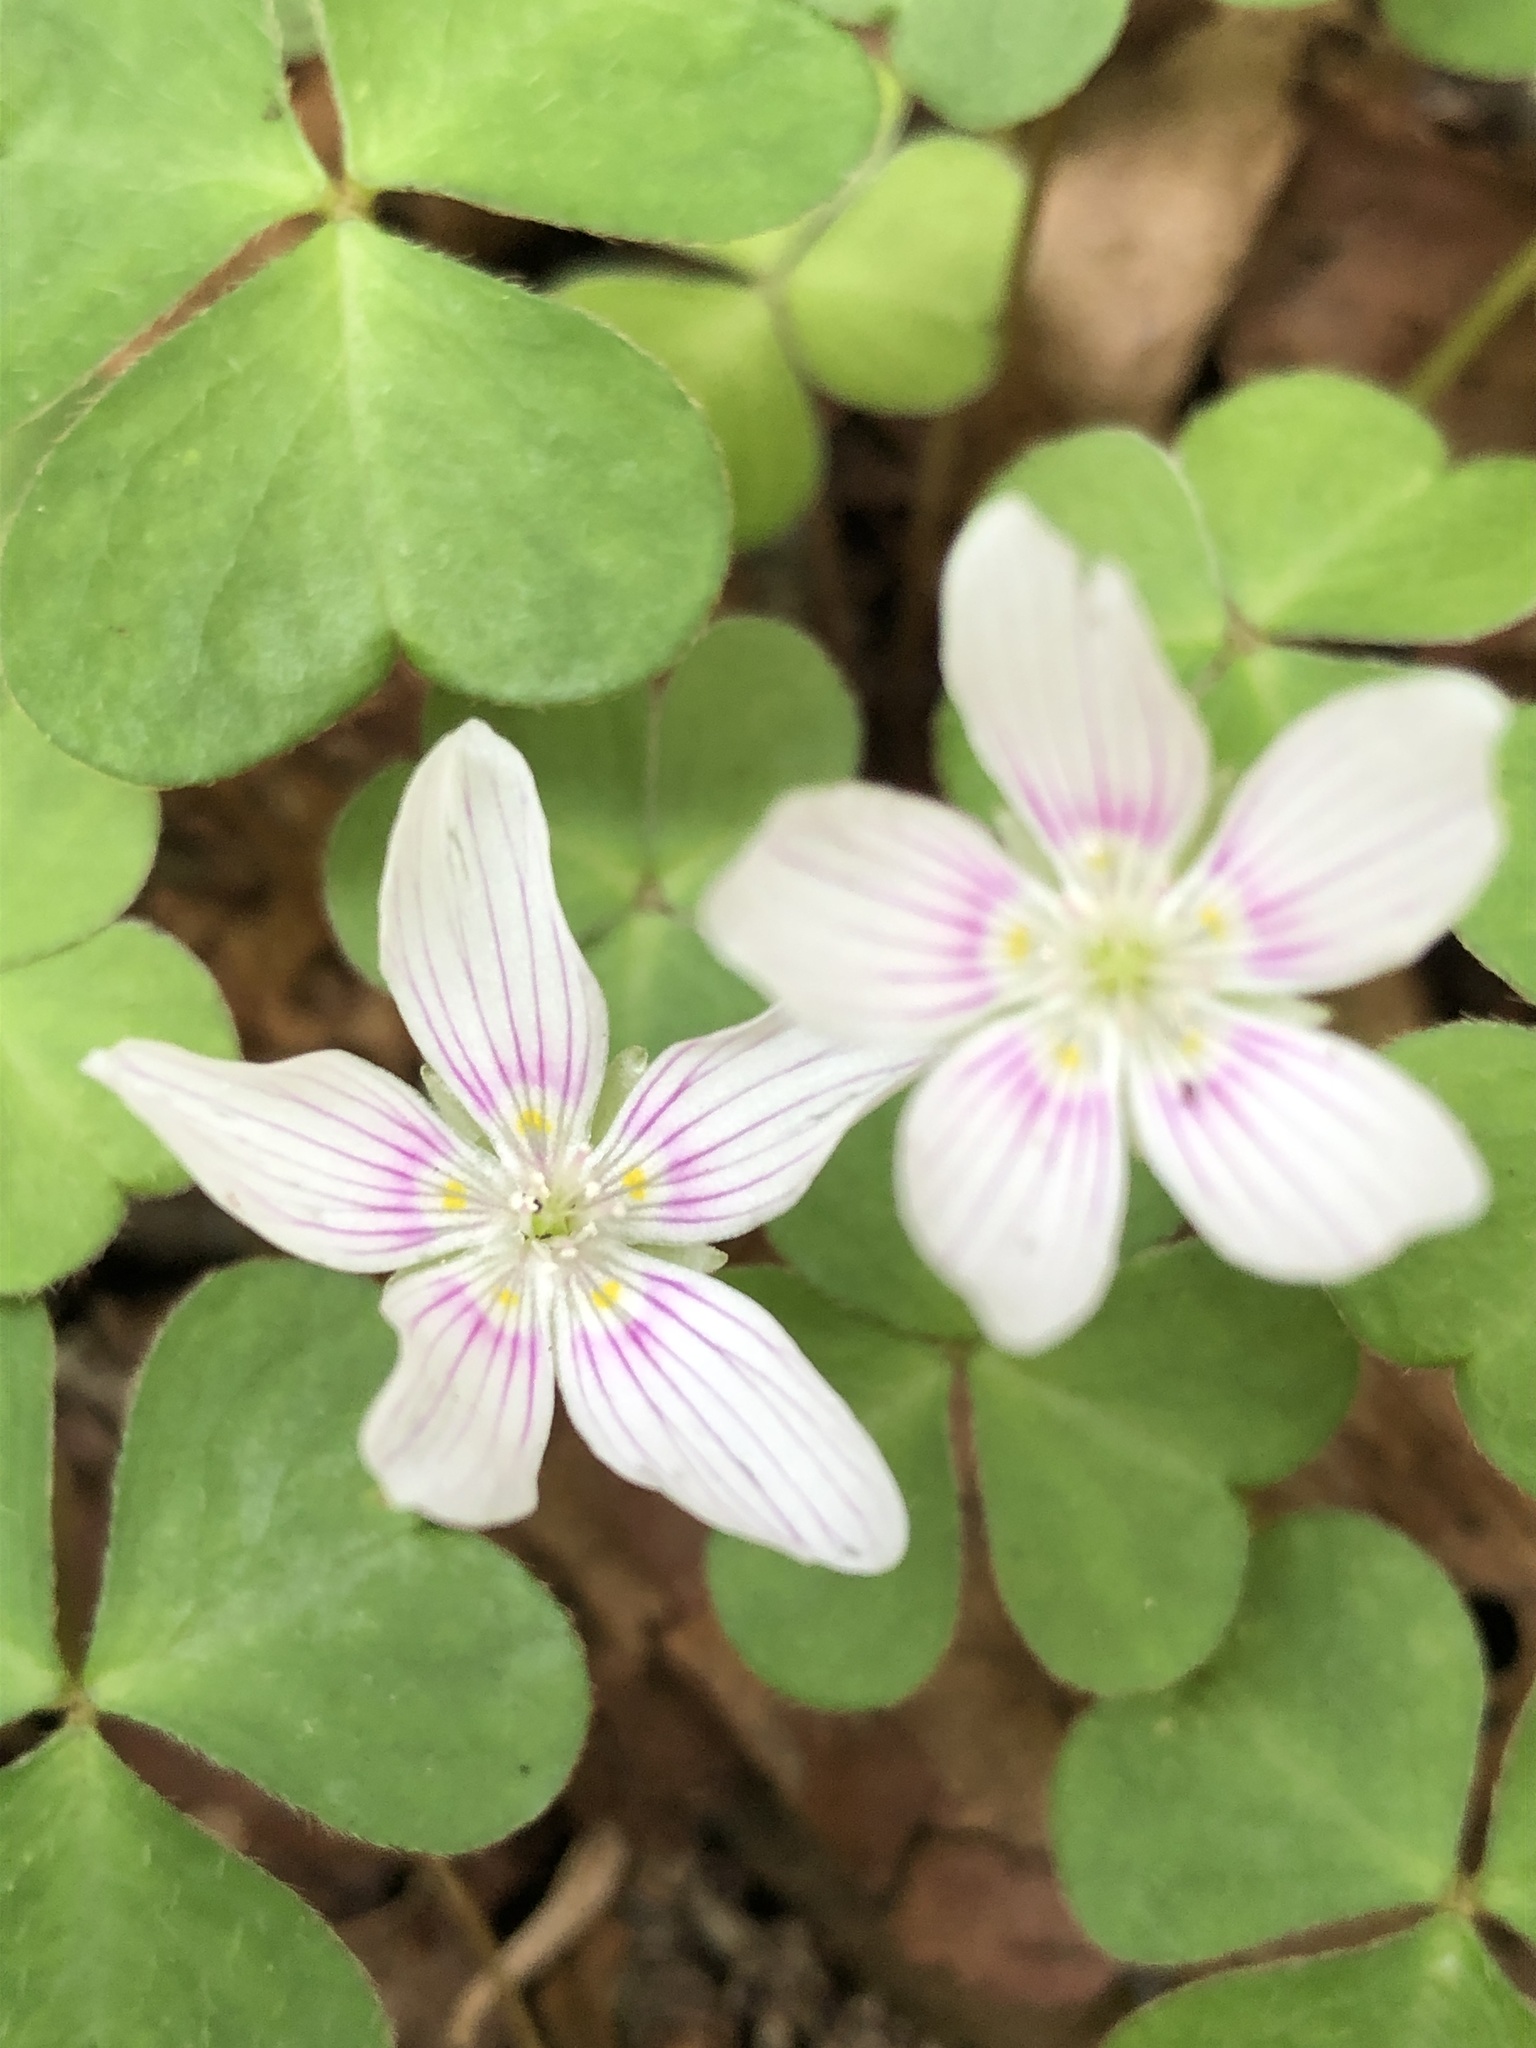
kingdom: Plantae
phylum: Tracheophyta
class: Magnoliopsida
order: Oxalidales
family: Oxalidaceae
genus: Oxalis
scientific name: Oxalis montana
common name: American wood-sorrel
